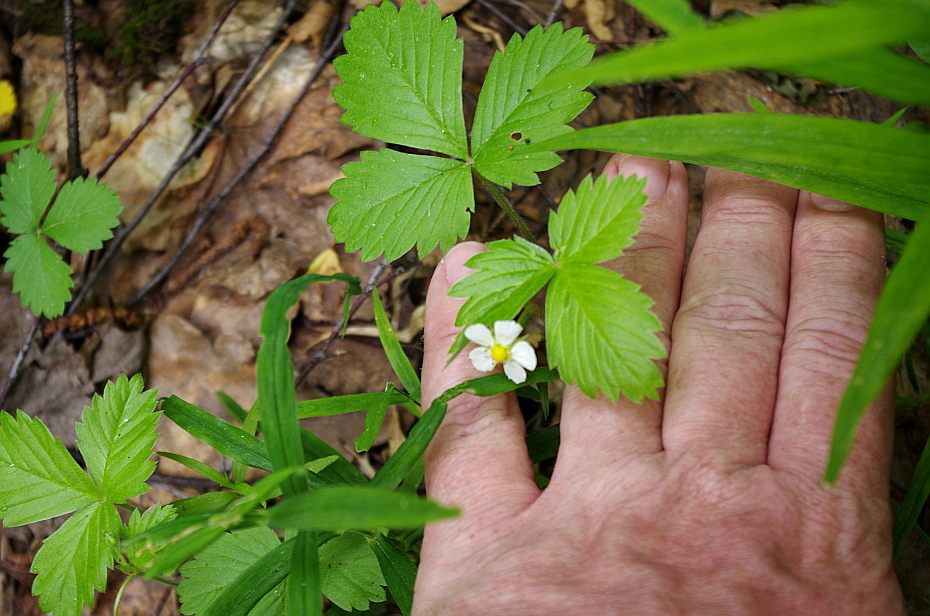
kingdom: Plantae
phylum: Tracheophyta
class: Magnoliopsida
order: Rosales
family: Rosaceae
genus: Fragaria
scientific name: Fragaria vesca
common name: Wild strawberry
